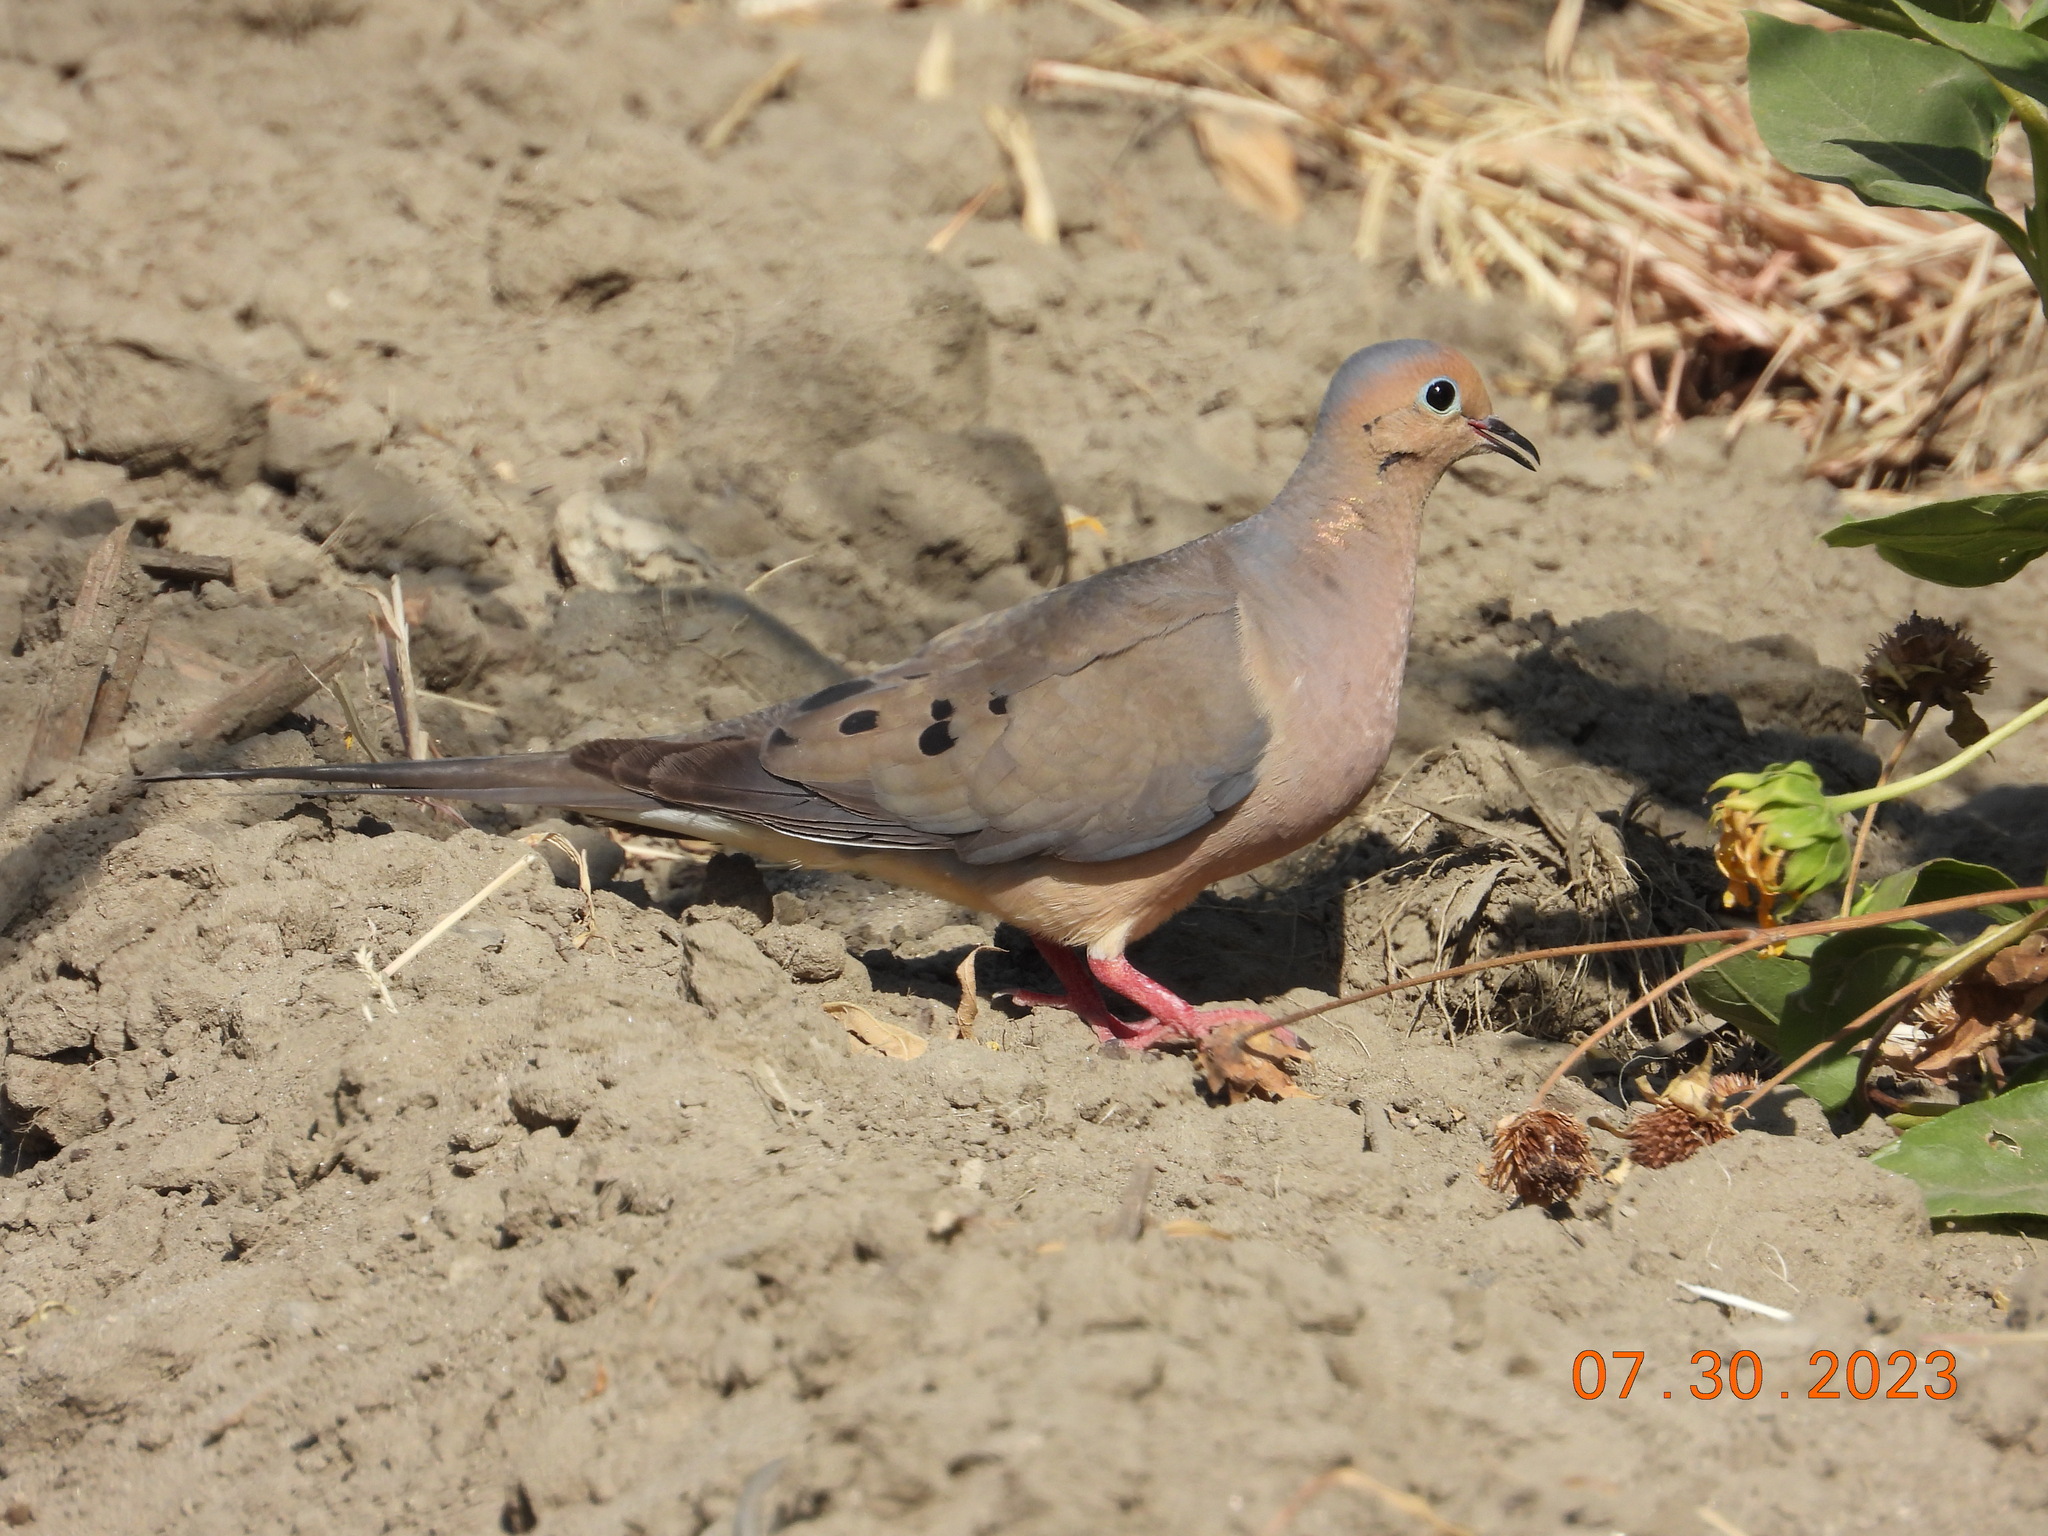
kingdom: Animalia
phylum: Chordata
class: Aves
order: Columbiformes
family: Columbidae
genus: Zenaida
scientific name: Zenaida macroura
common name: Mourning dove
